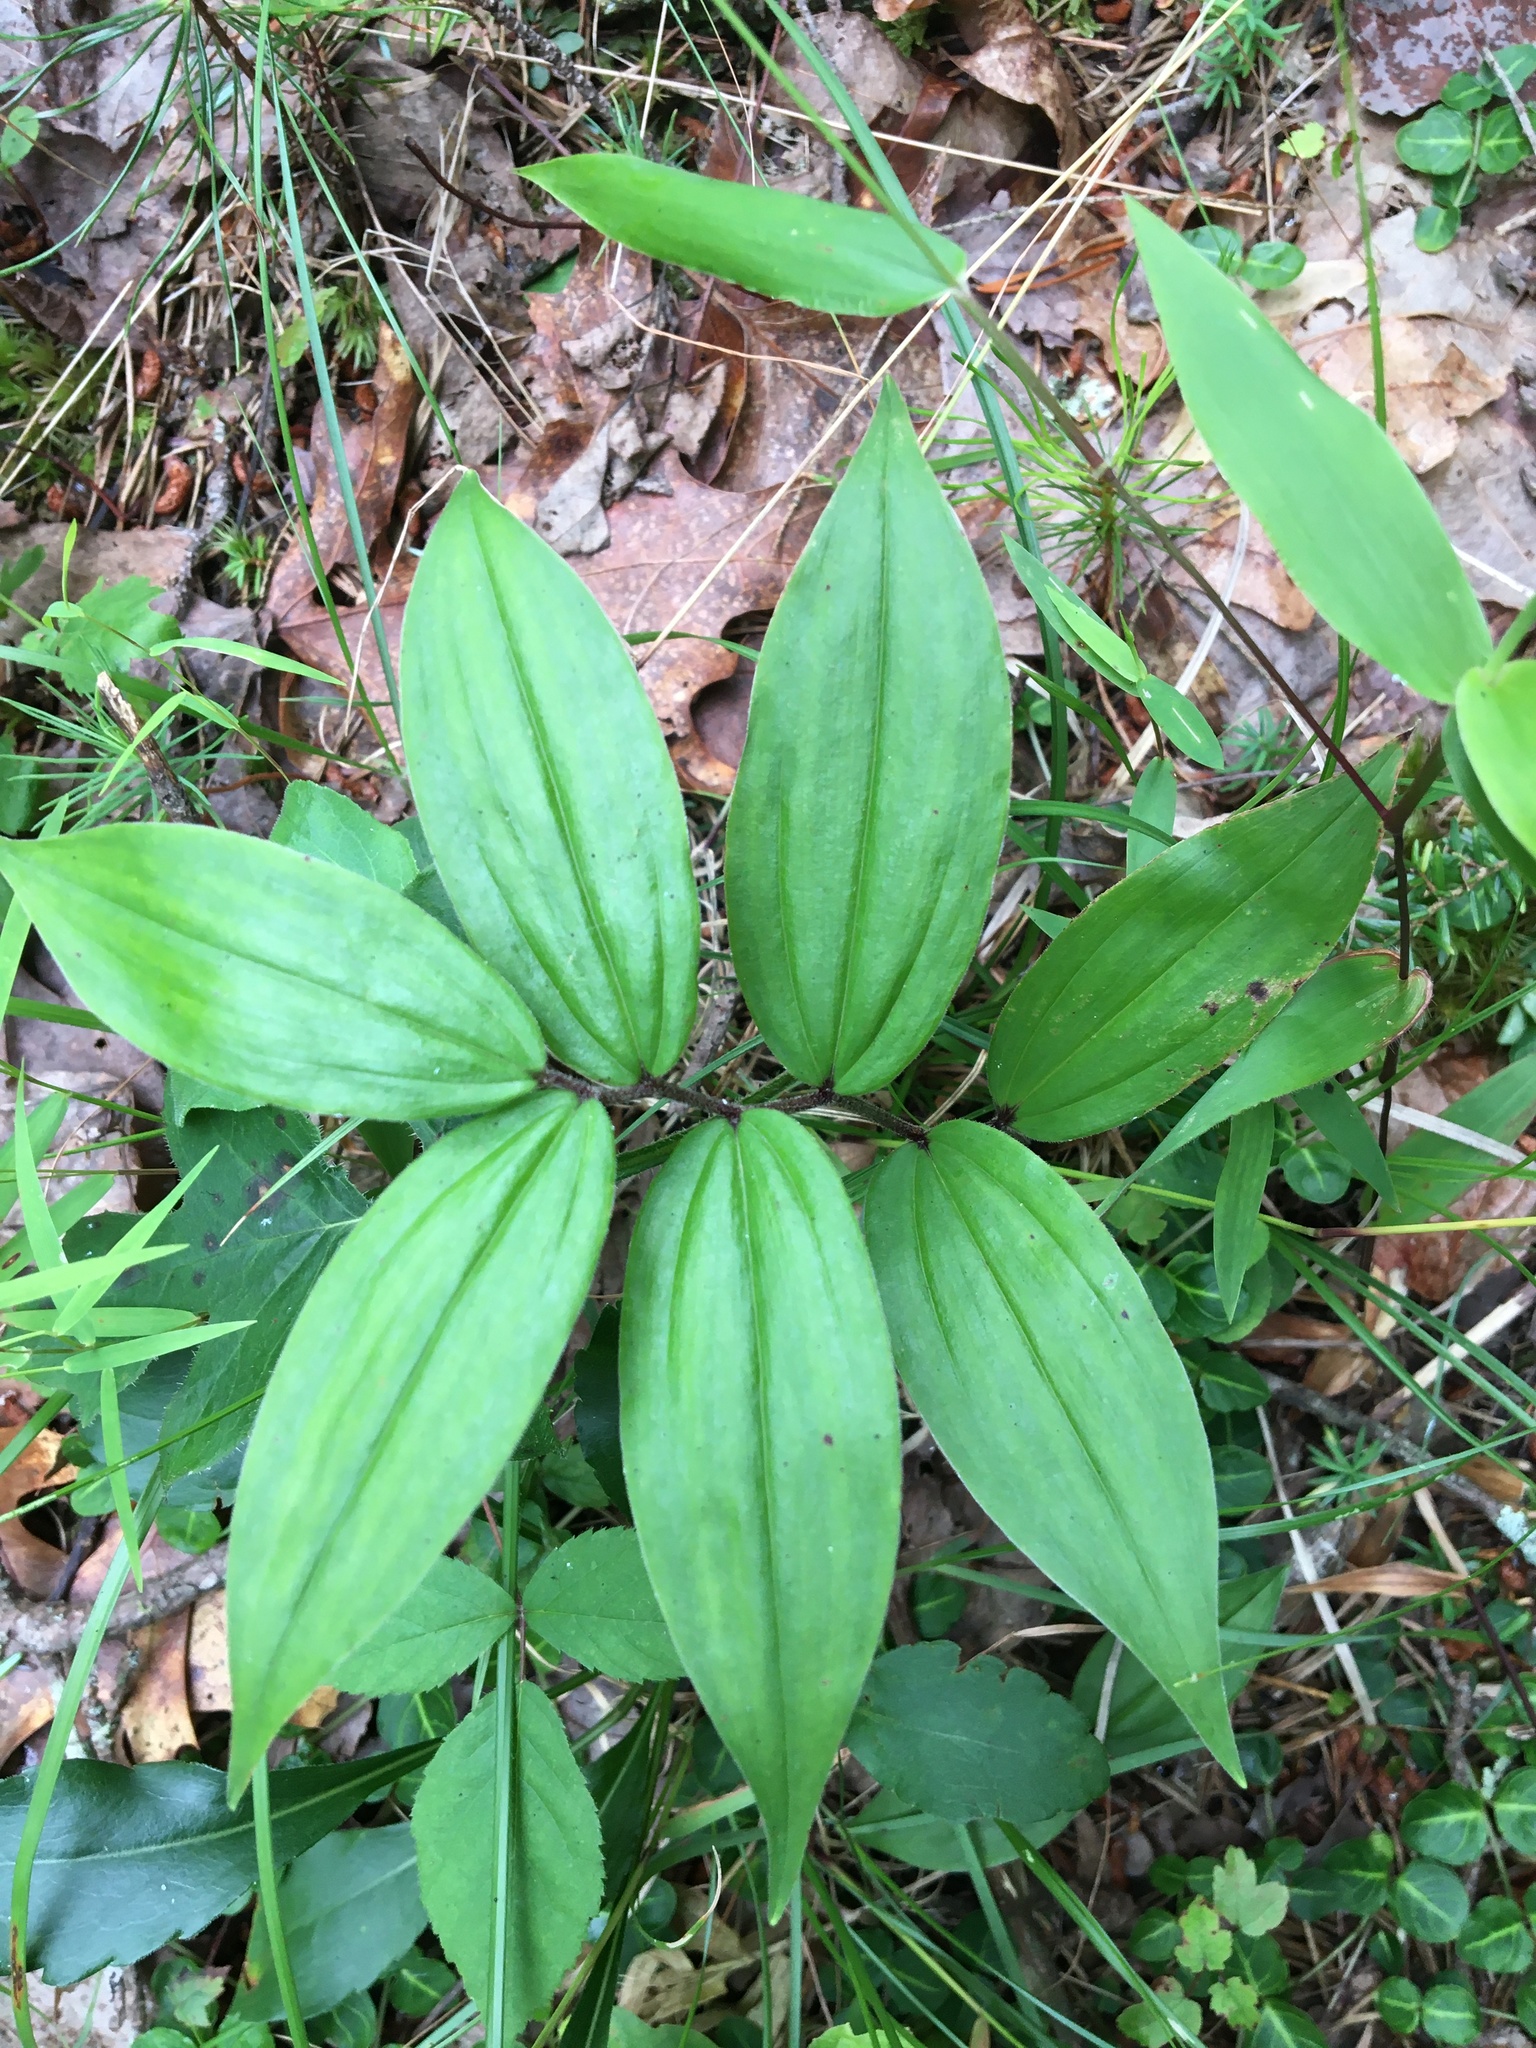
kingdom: Plantae
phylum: Tracheophyta
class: Liliopsida
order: Asparagales
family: Asparagaceae
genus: Maianthemum
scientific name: Maianthemum racemosum
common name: False spikenard
